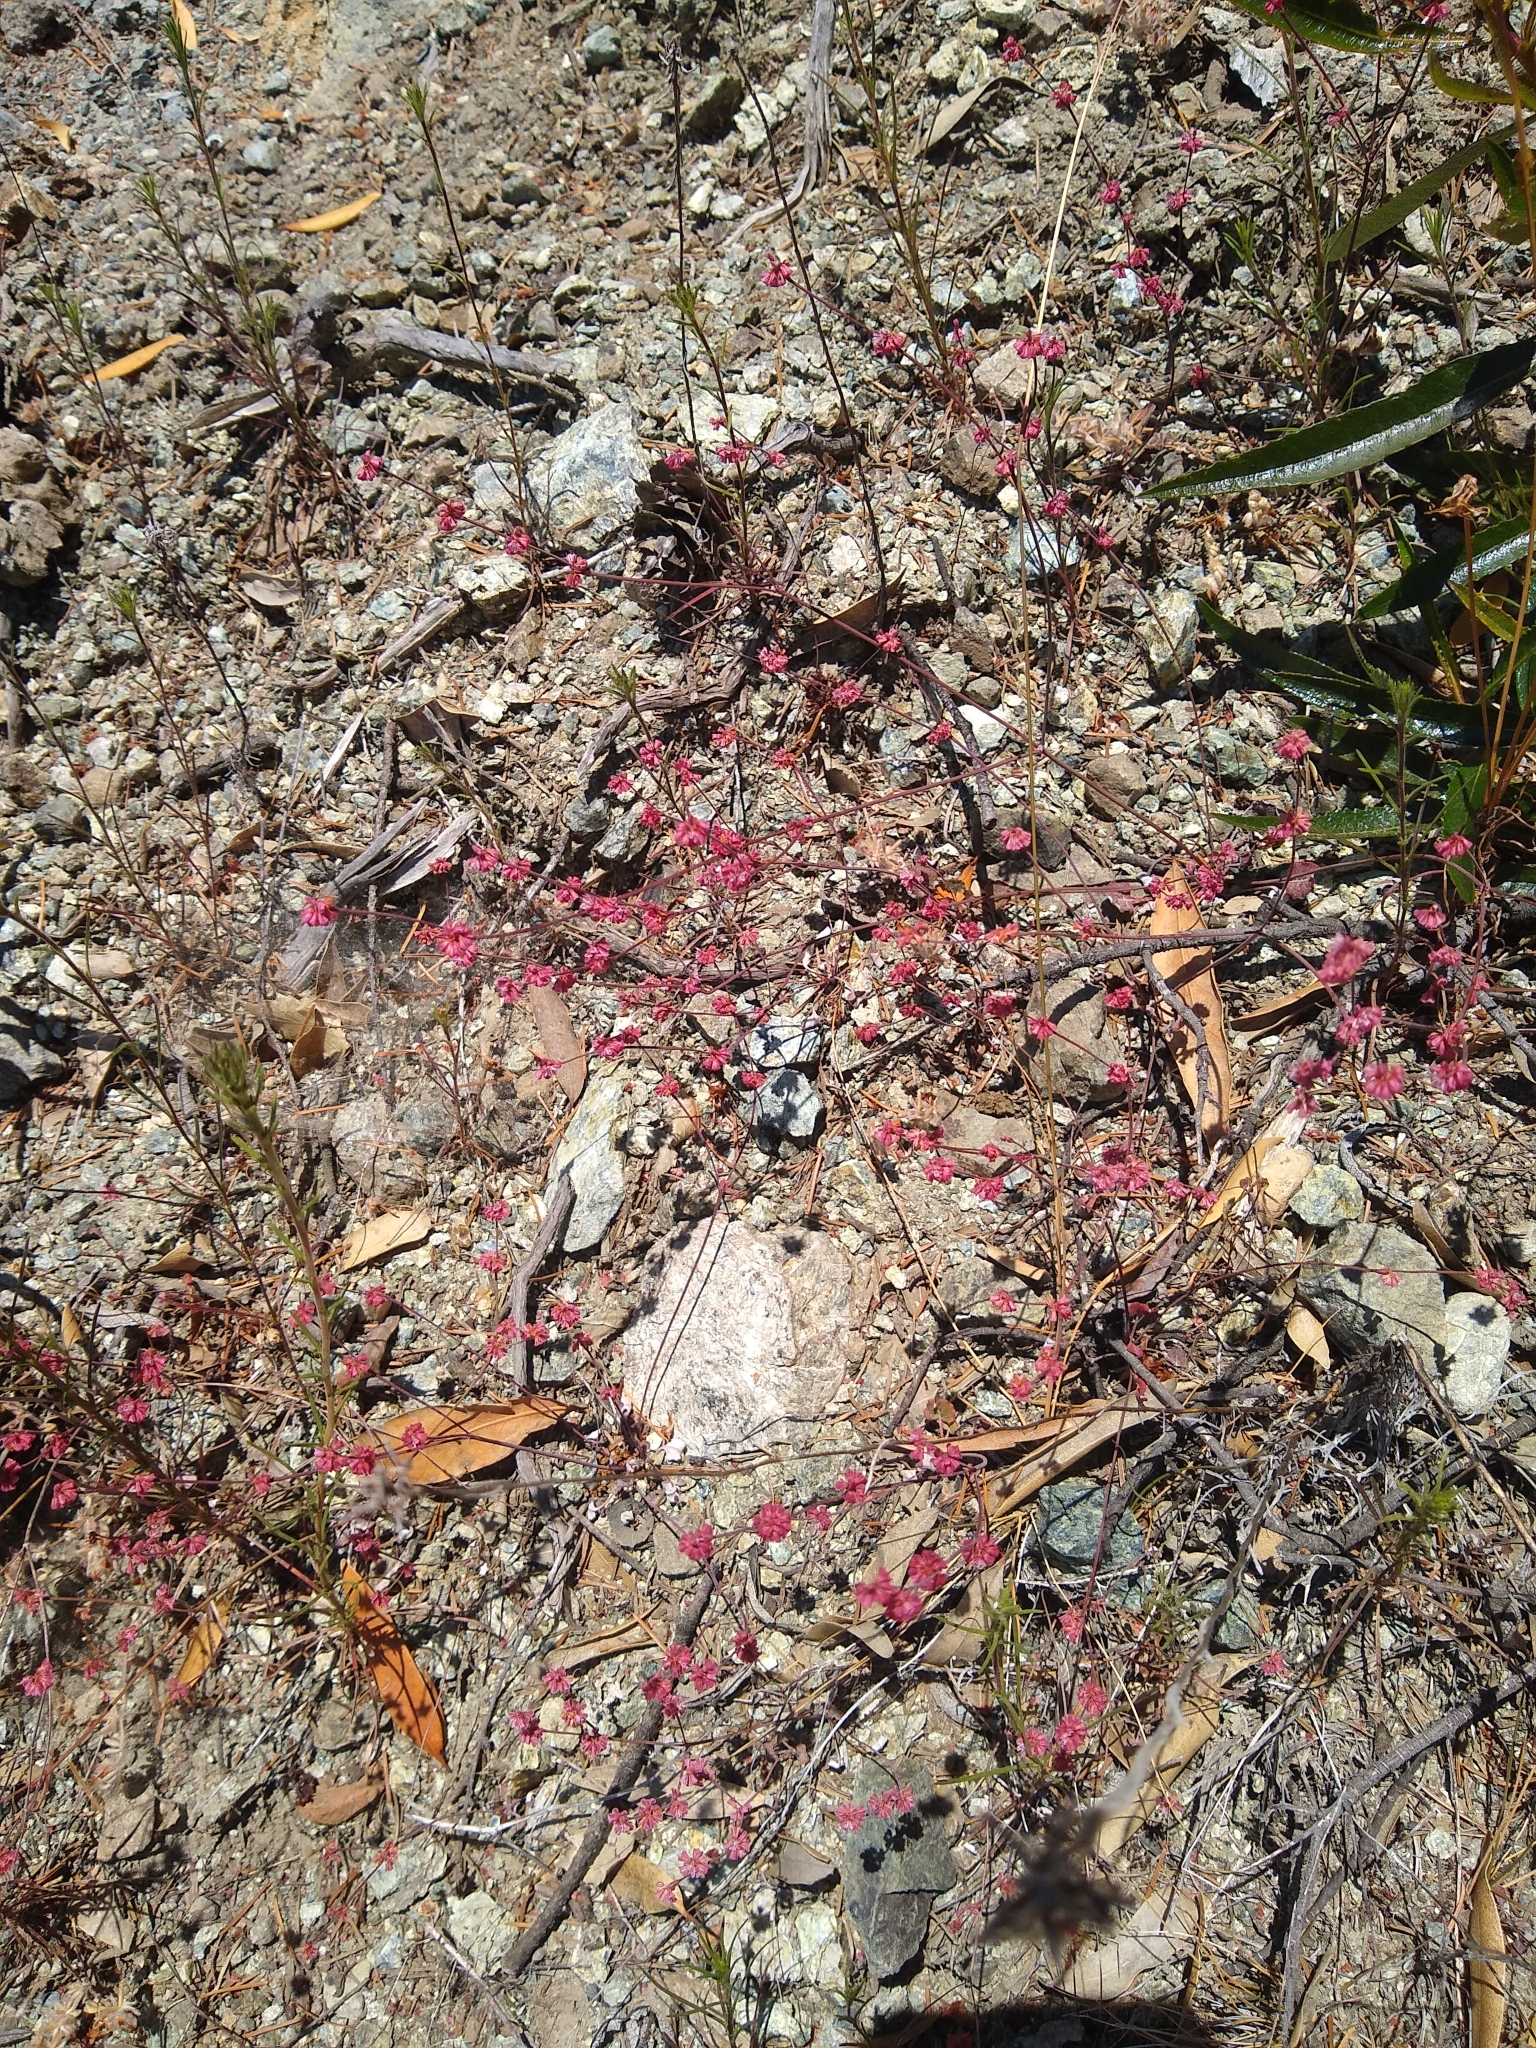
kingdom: Plantae
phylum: Tracheophyta
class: Magnoliopsida
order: Caryophyllales
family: Polygonaceae
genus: Eriogonum
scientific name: Eriogonum luteolum
